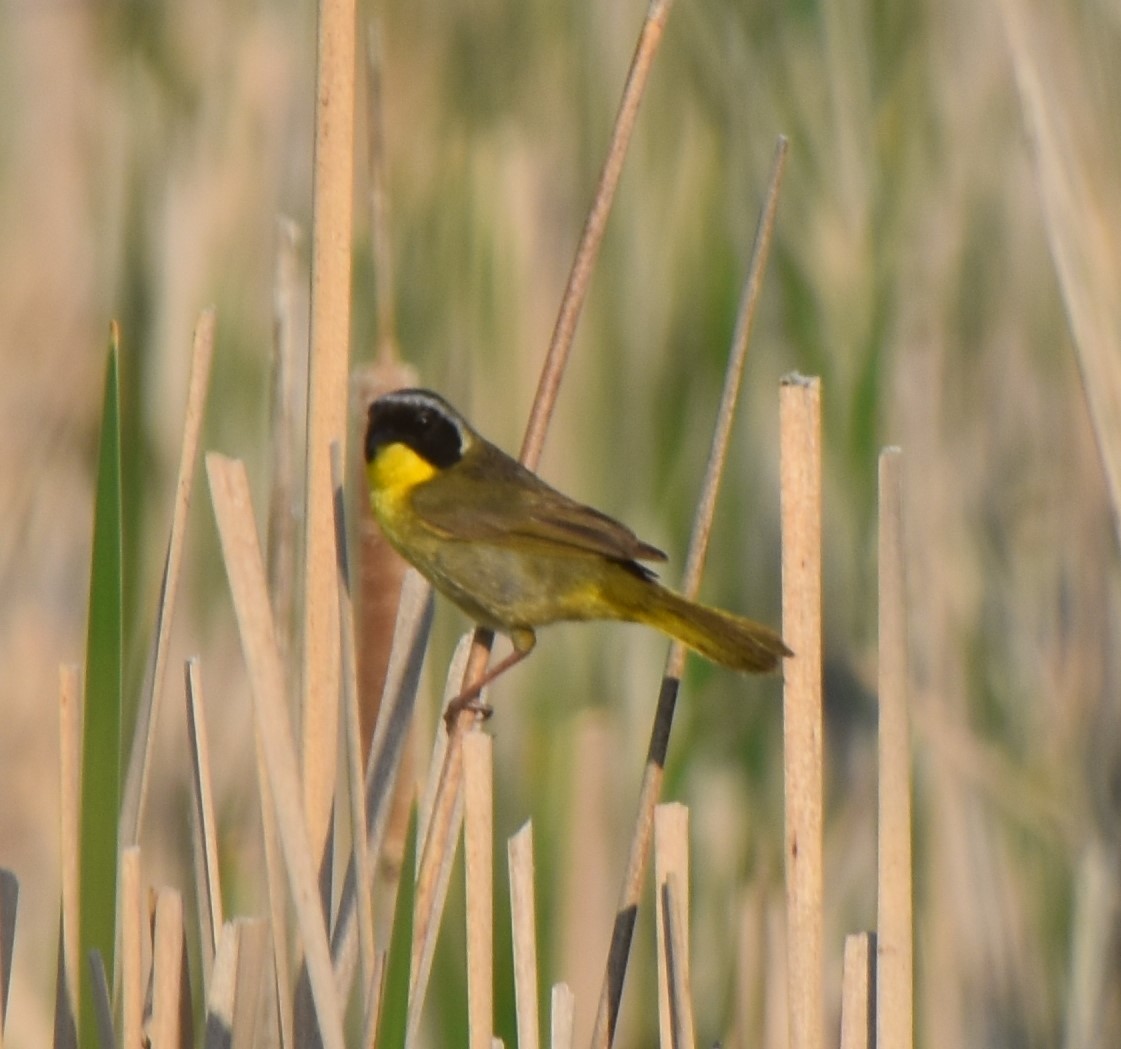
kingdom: Animalia
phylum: Chordata
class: Aves
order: Passeriformes
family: Parulidae
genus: Geothlypis
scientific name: Geothlypis trichas
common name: Common yellowthroat
